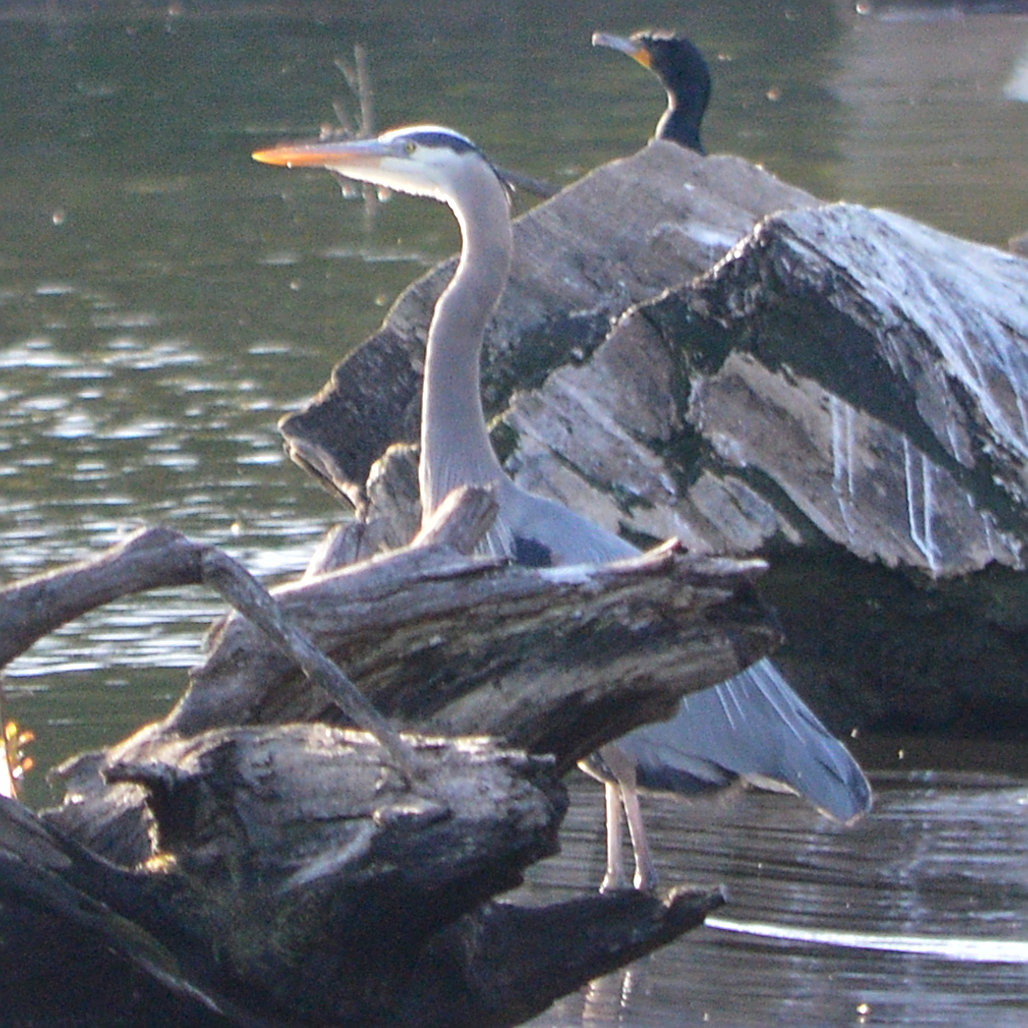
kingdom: Animalia
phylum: Chordata
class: Aves
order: Pelecaniformes
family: Ardeidae
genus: Ardea
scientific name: Ardea herodias
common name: Great blue heron
